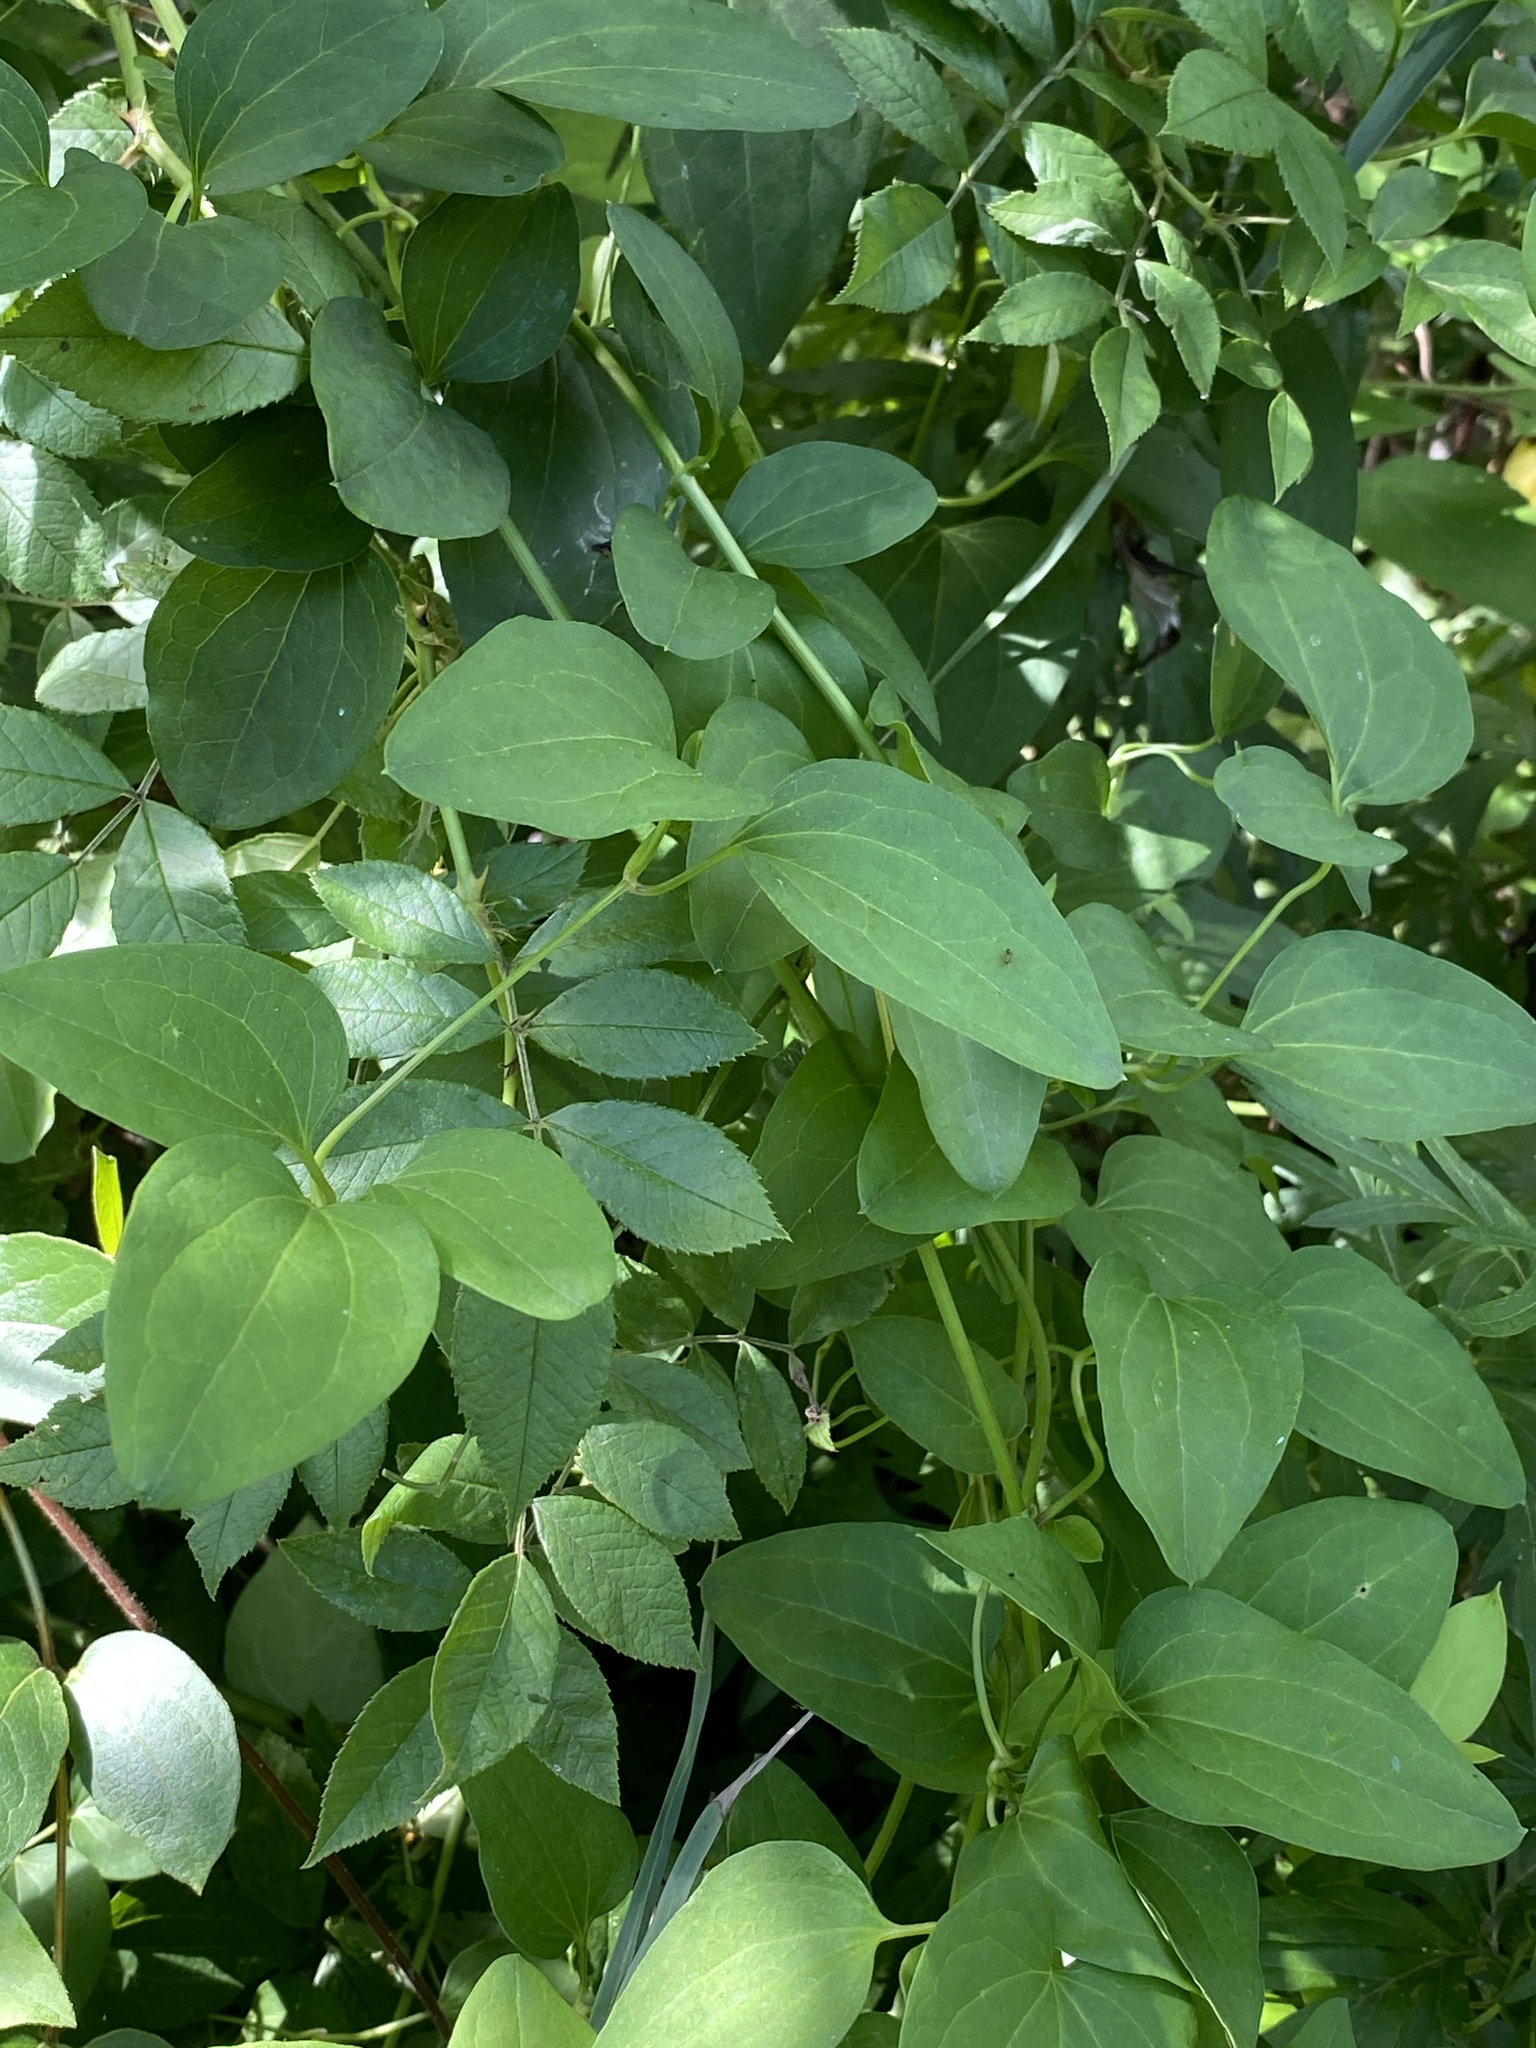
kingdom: Plantae
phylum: Tracheophyta
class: Magnoliopsida
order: Ranunculales
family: Ranunculaceae
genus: Clematis
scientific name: Clematis terniflora
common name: Sweet autumn clematis
